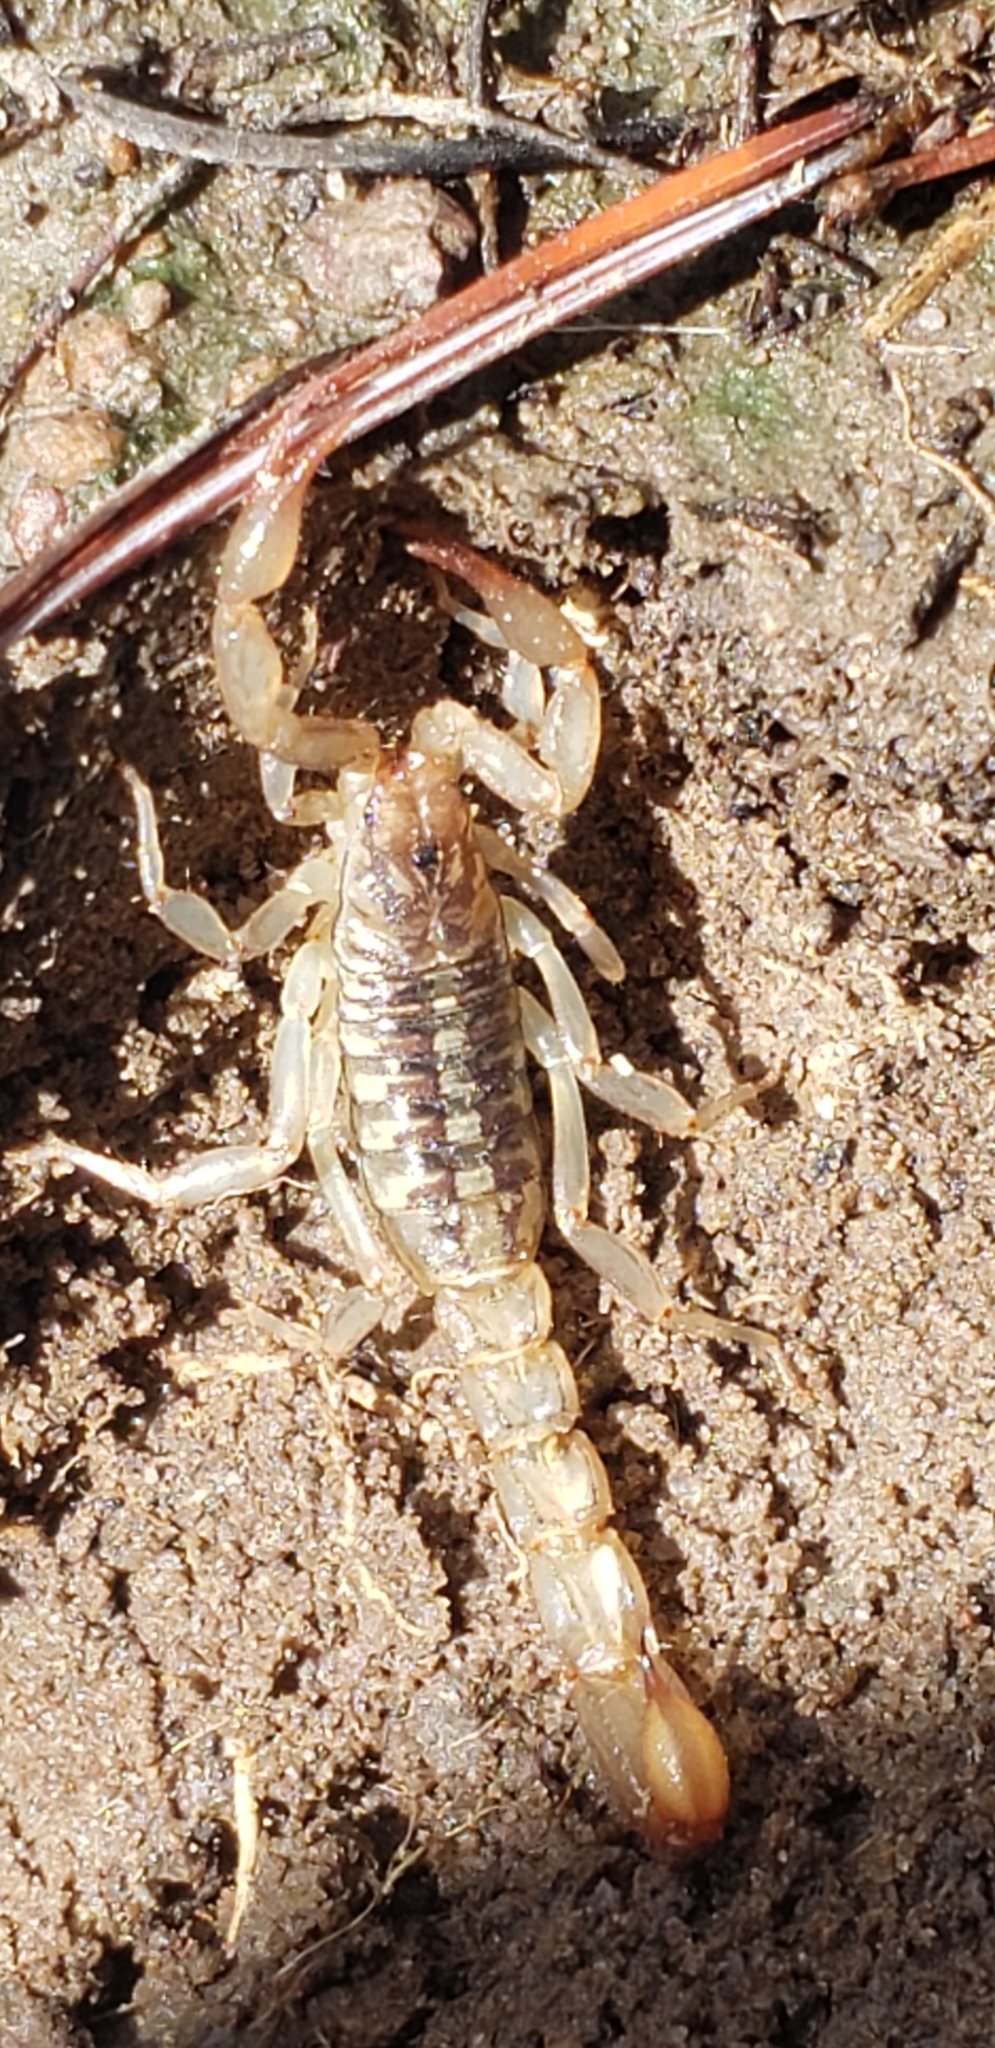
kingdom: Animalia
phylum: Arthropoda
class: Arachnida
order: Scorpiones
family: Vaejovidae
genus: Chihuahuanus
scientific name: Chihuahuanus bilineatus
